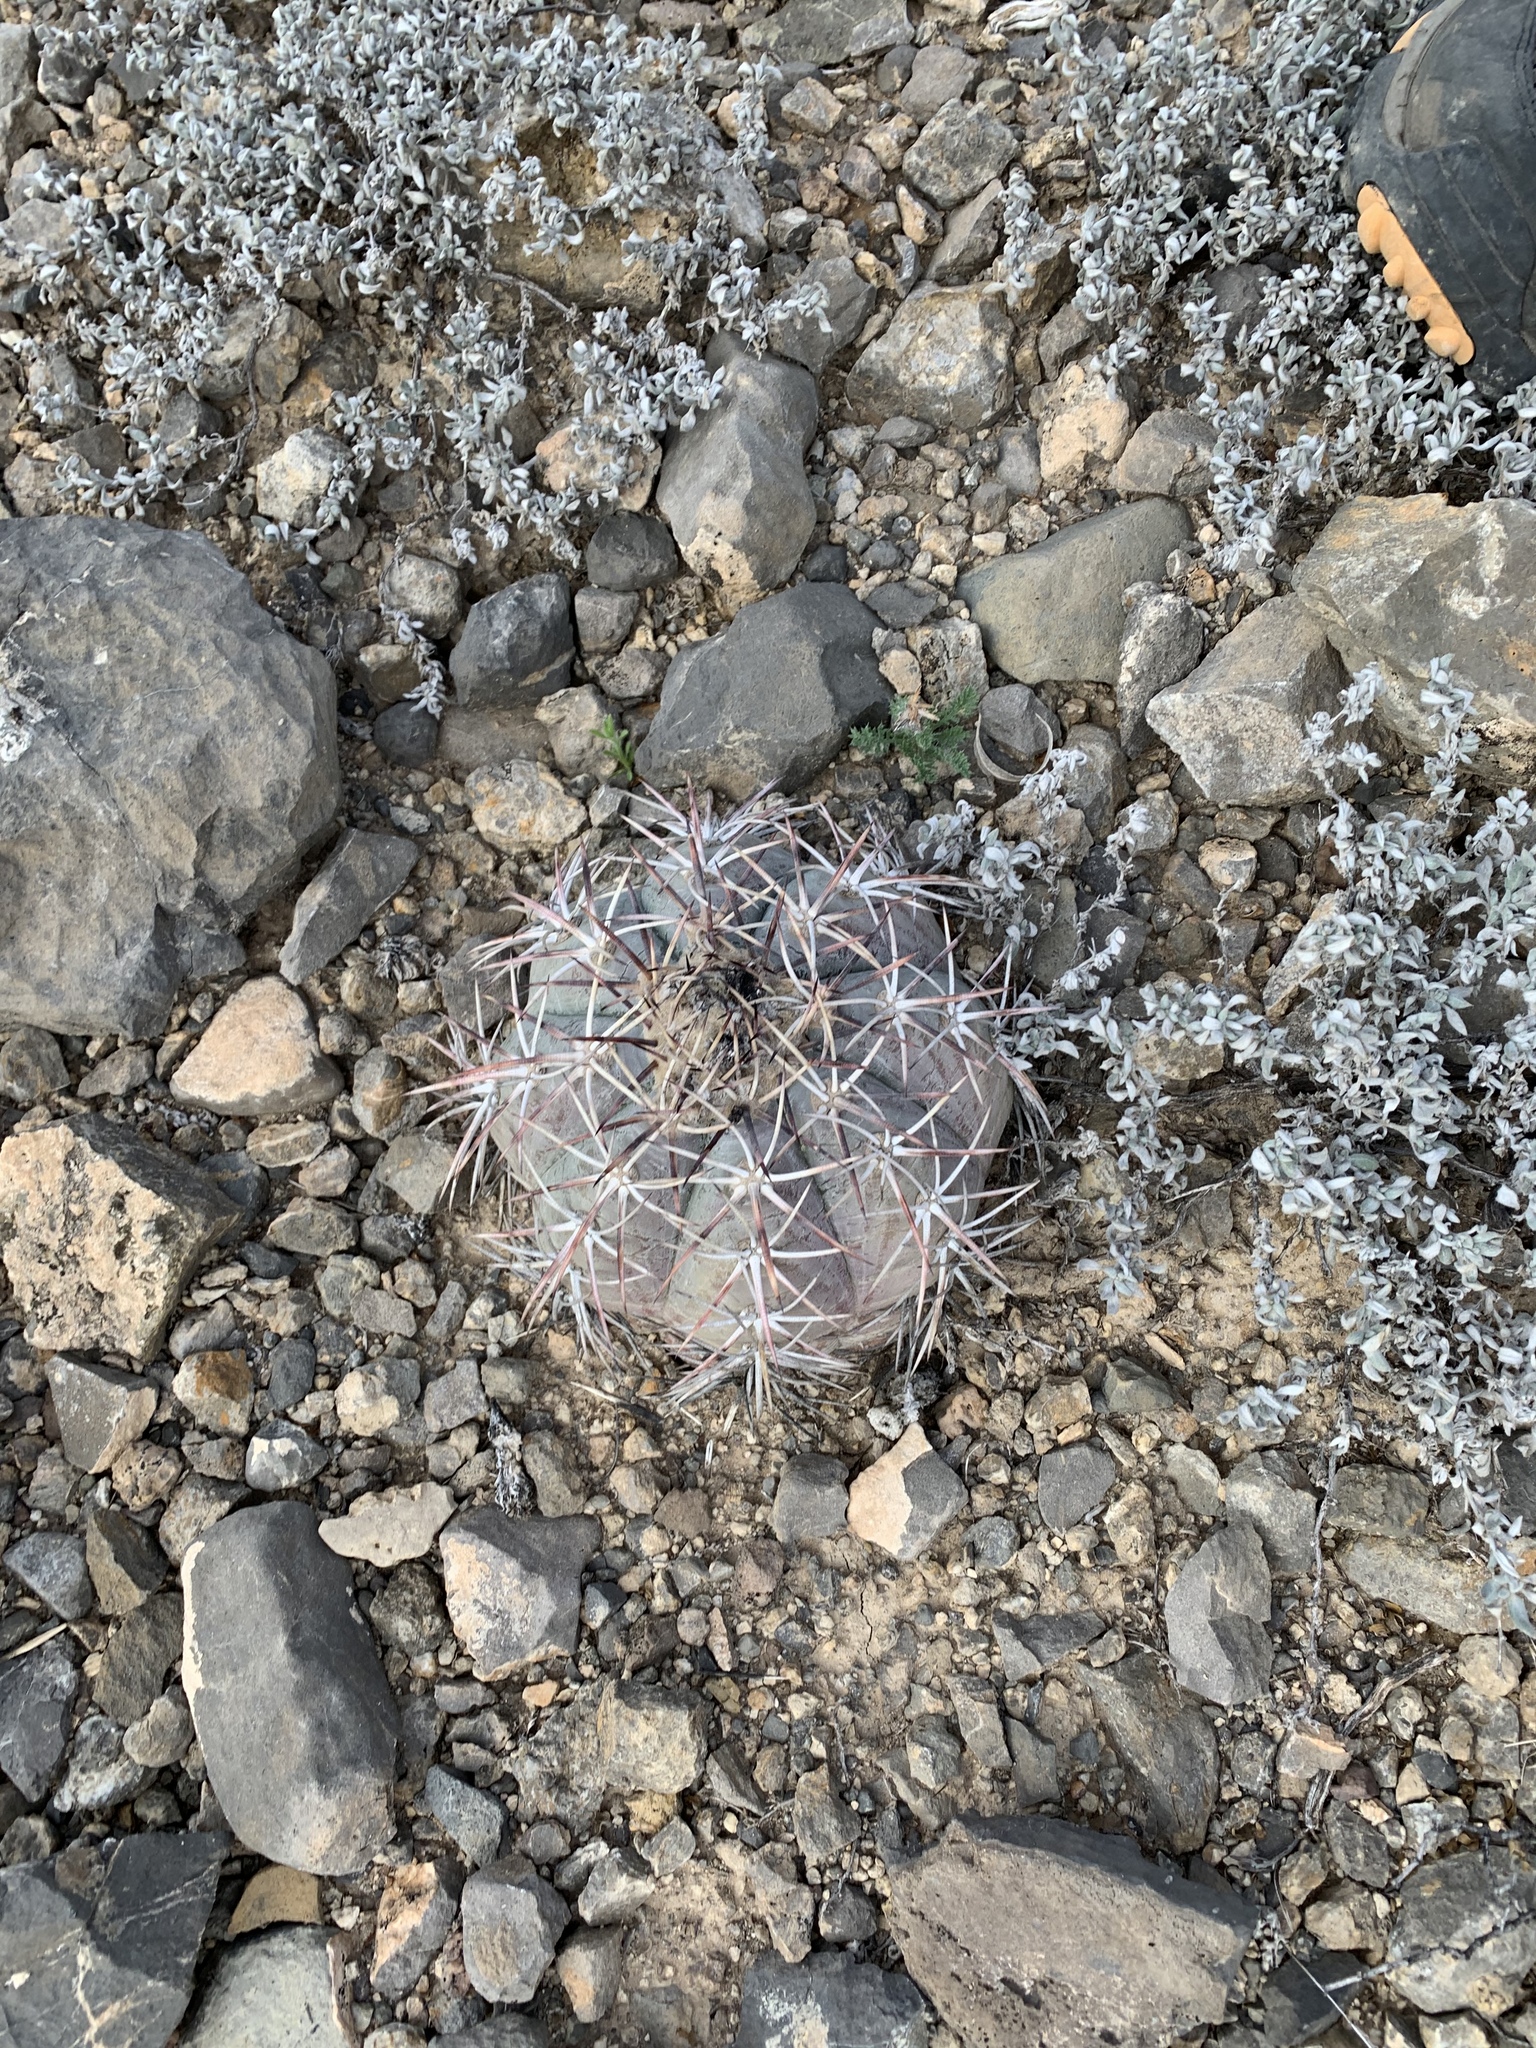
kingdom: Plantae
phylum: Tracheophyta
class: Magnoliopsida
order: Caryophyllales
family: Cactaceae
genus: Echinocactus
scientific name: Echinocactus horizonthalonius
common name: Devilshead
